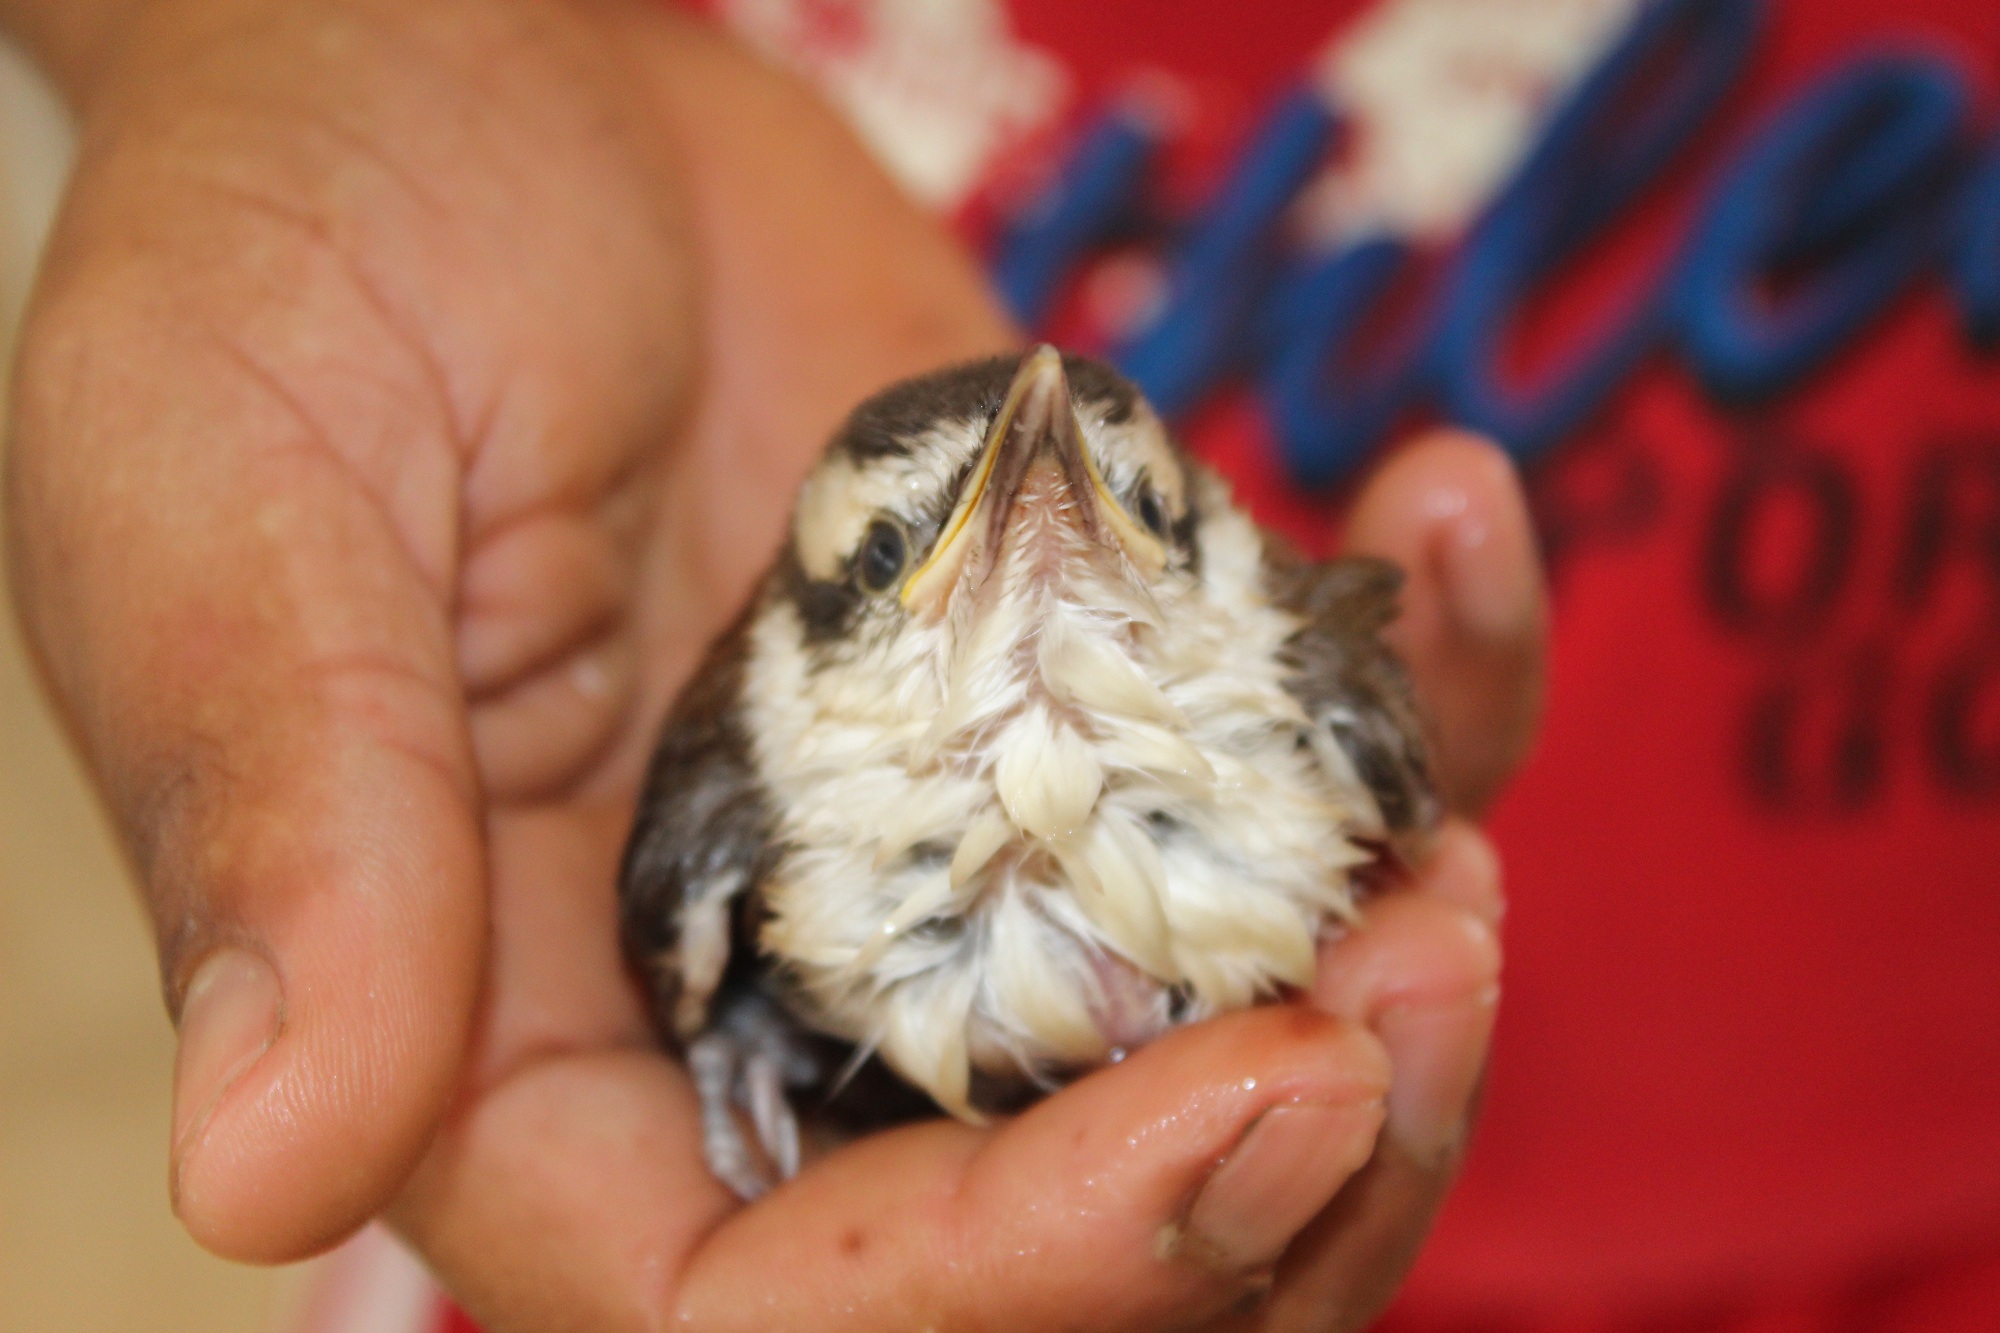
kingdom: Animalia
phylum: Chordata
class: Aves
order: Passeriformes
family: Troglodytidae
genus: Campylorhynchus
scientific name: Campylorhynchus griseus
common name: Bicolored wren
